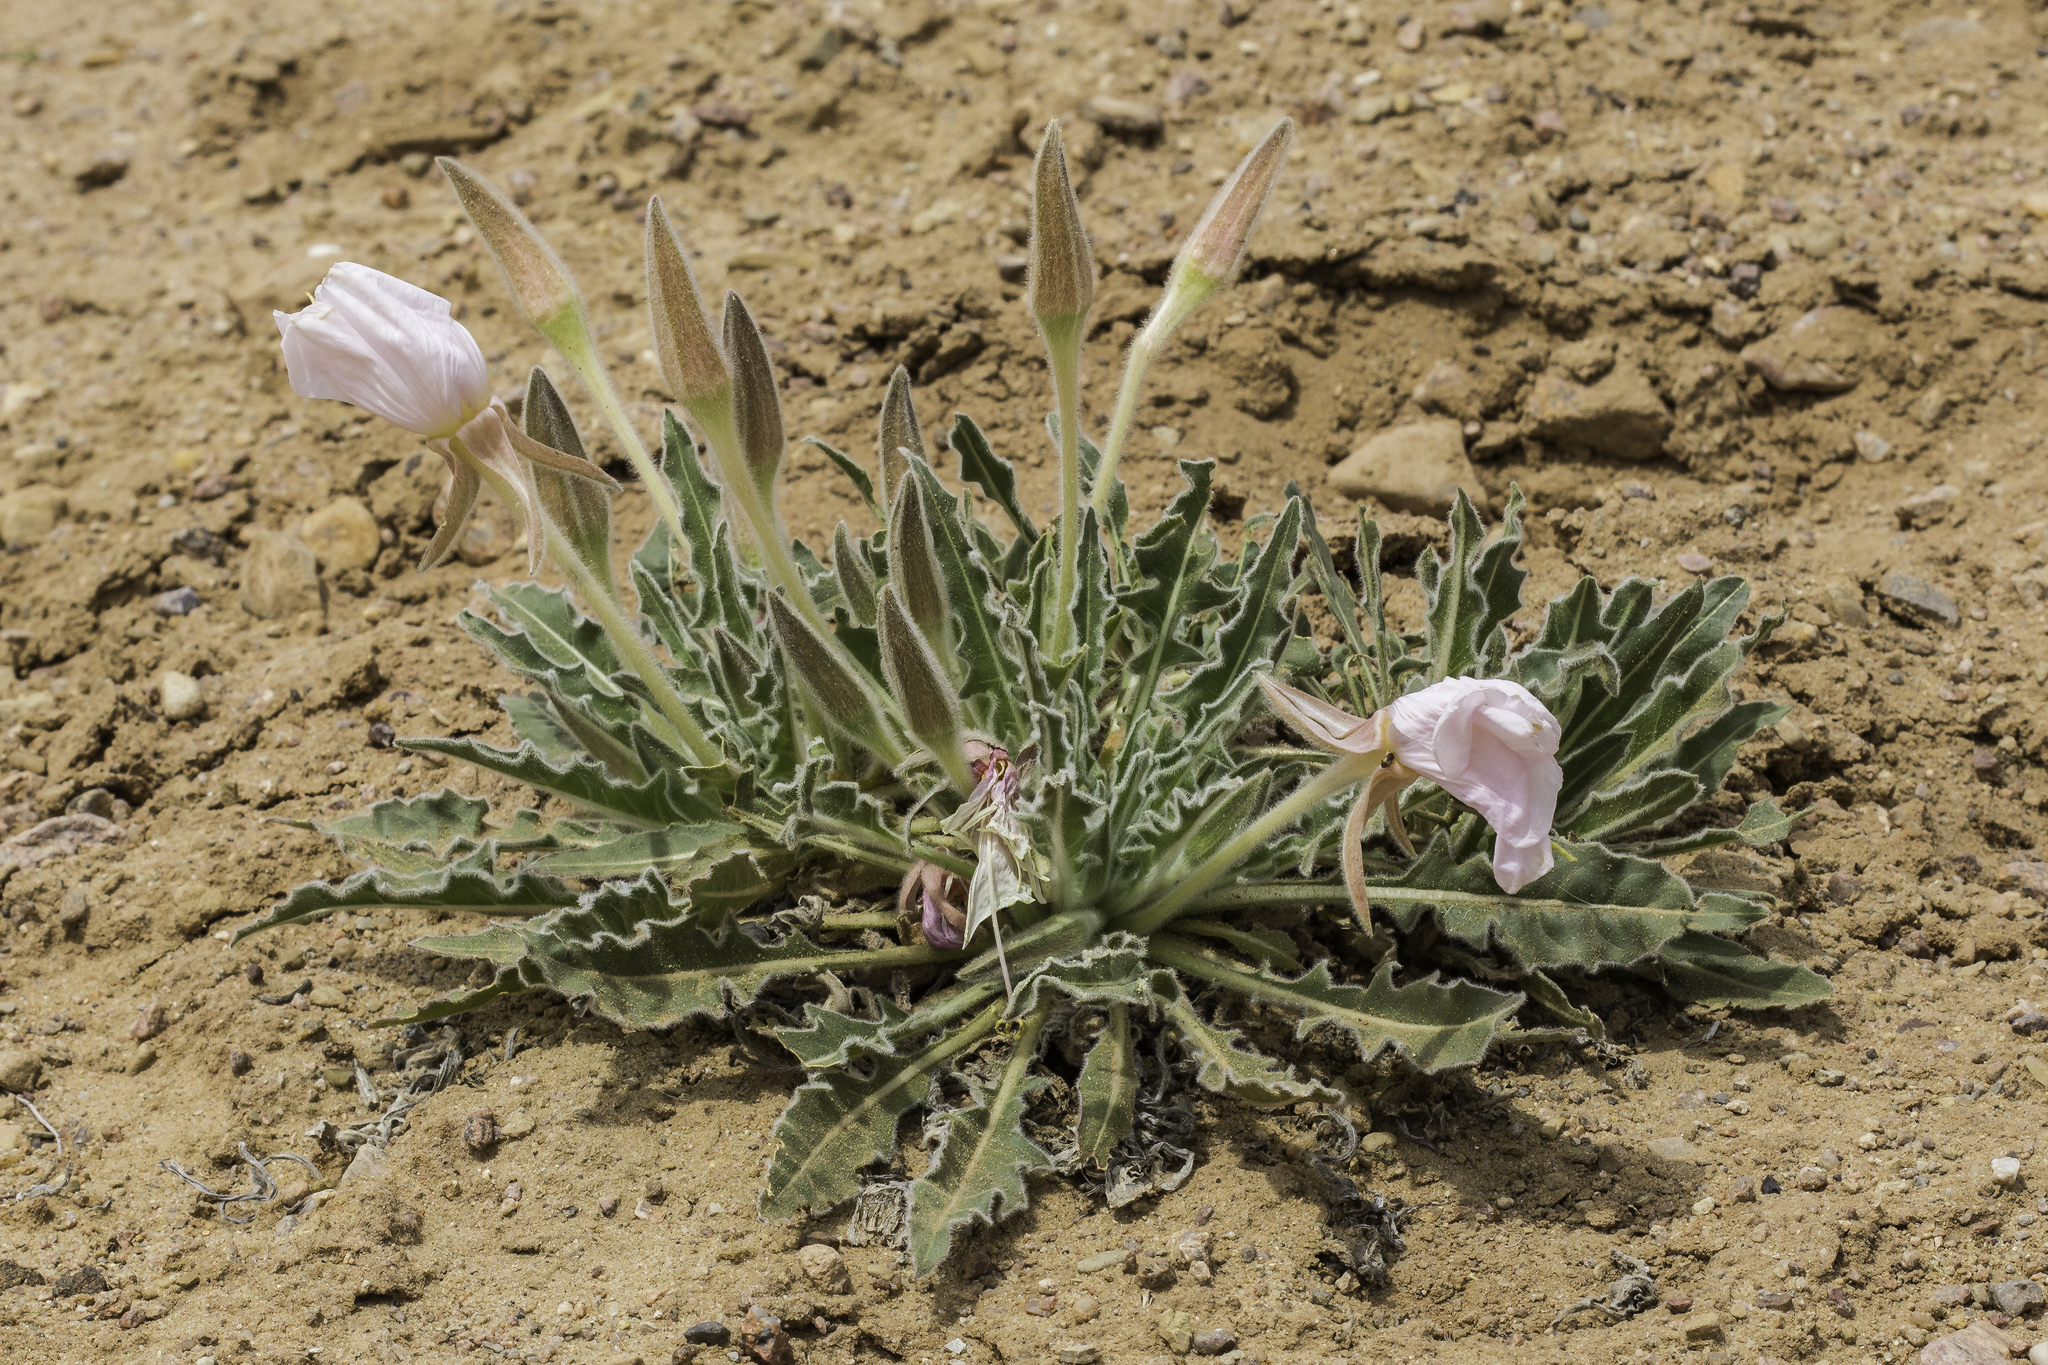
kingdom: Plantae
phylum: Tracheophyta
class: Magnoliopsida
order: Myrtales
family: Onagraceae
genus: Oenothera
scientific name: Oenothera cespitosa
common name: Tufted evening-primrose
